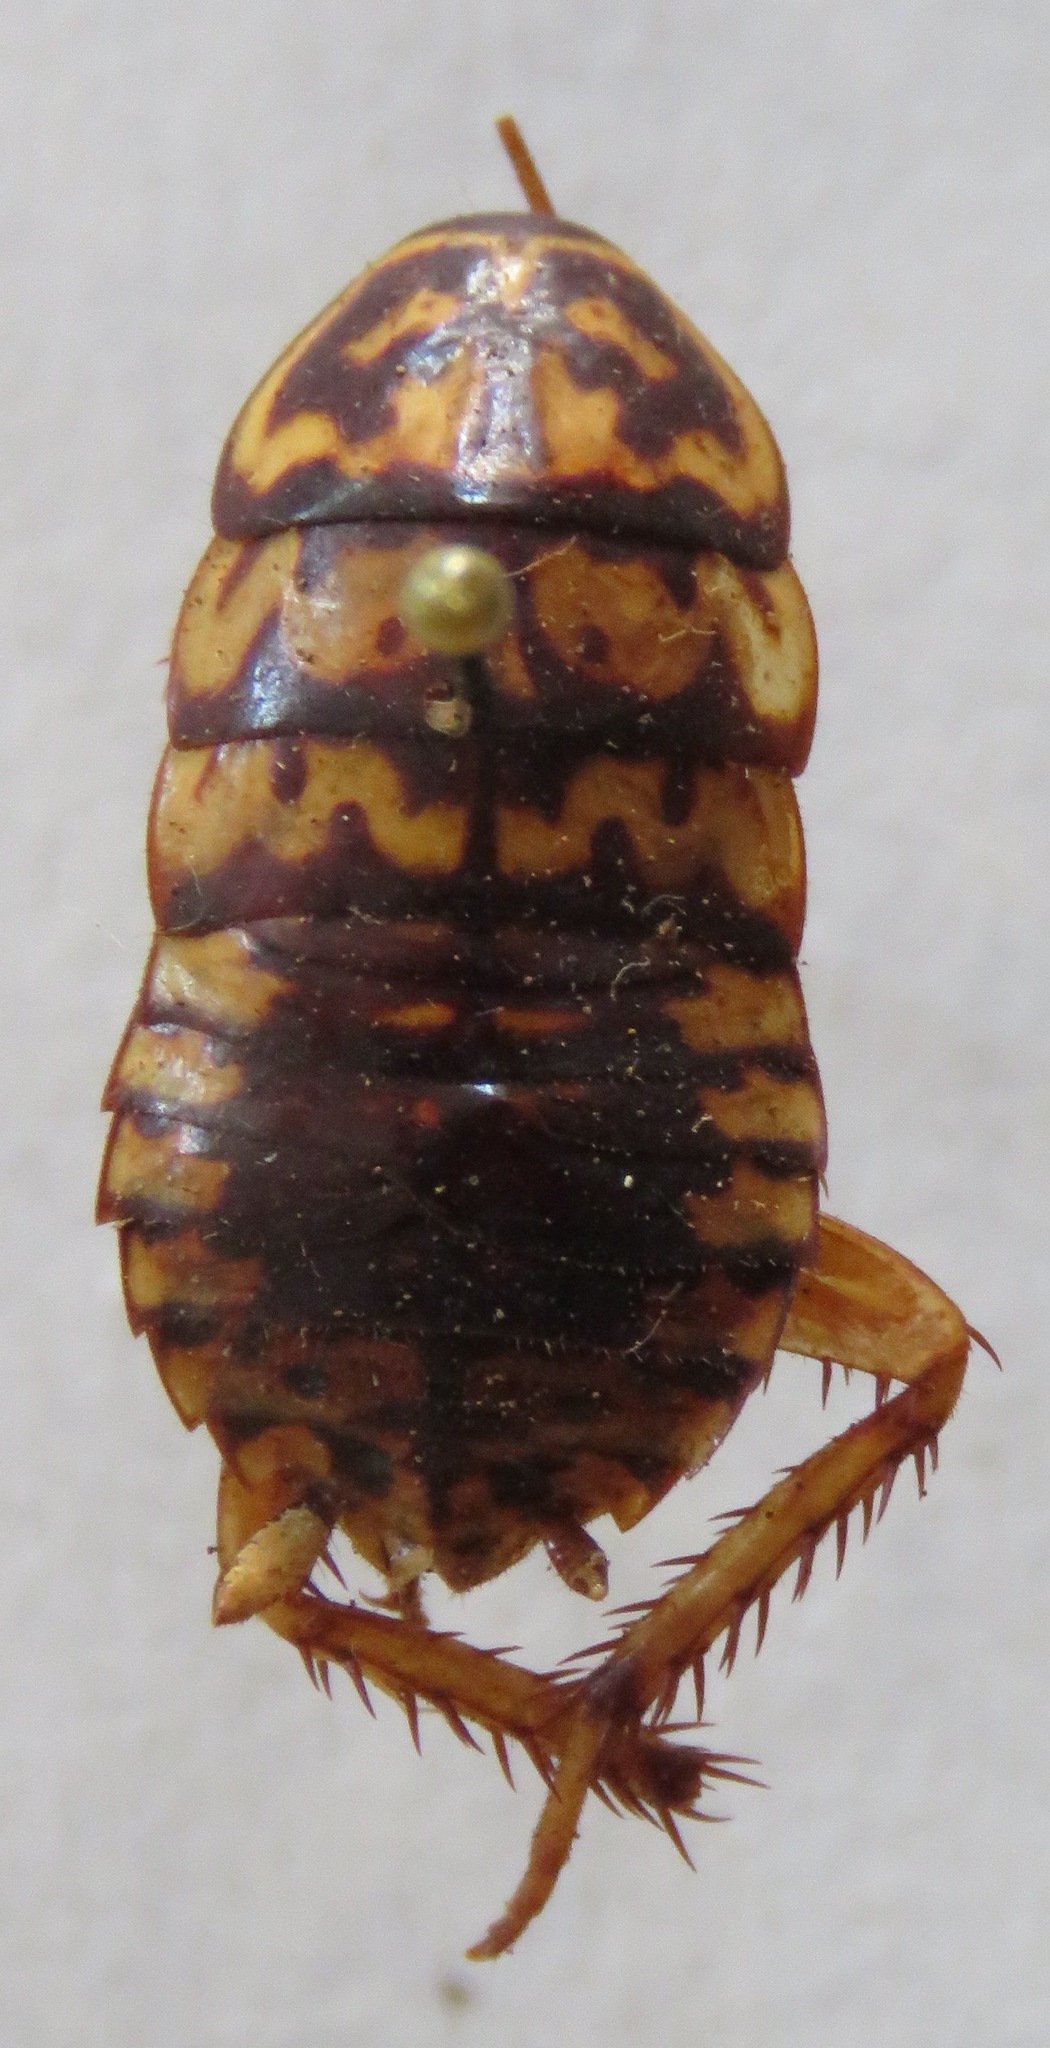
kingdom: Animalia
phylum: Arthropoda
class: Insecta
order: Blattodea
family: Blattidae
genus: Neostylopyga
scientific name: Neostylopyga rhombifolia
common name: Harlequin cockroach
